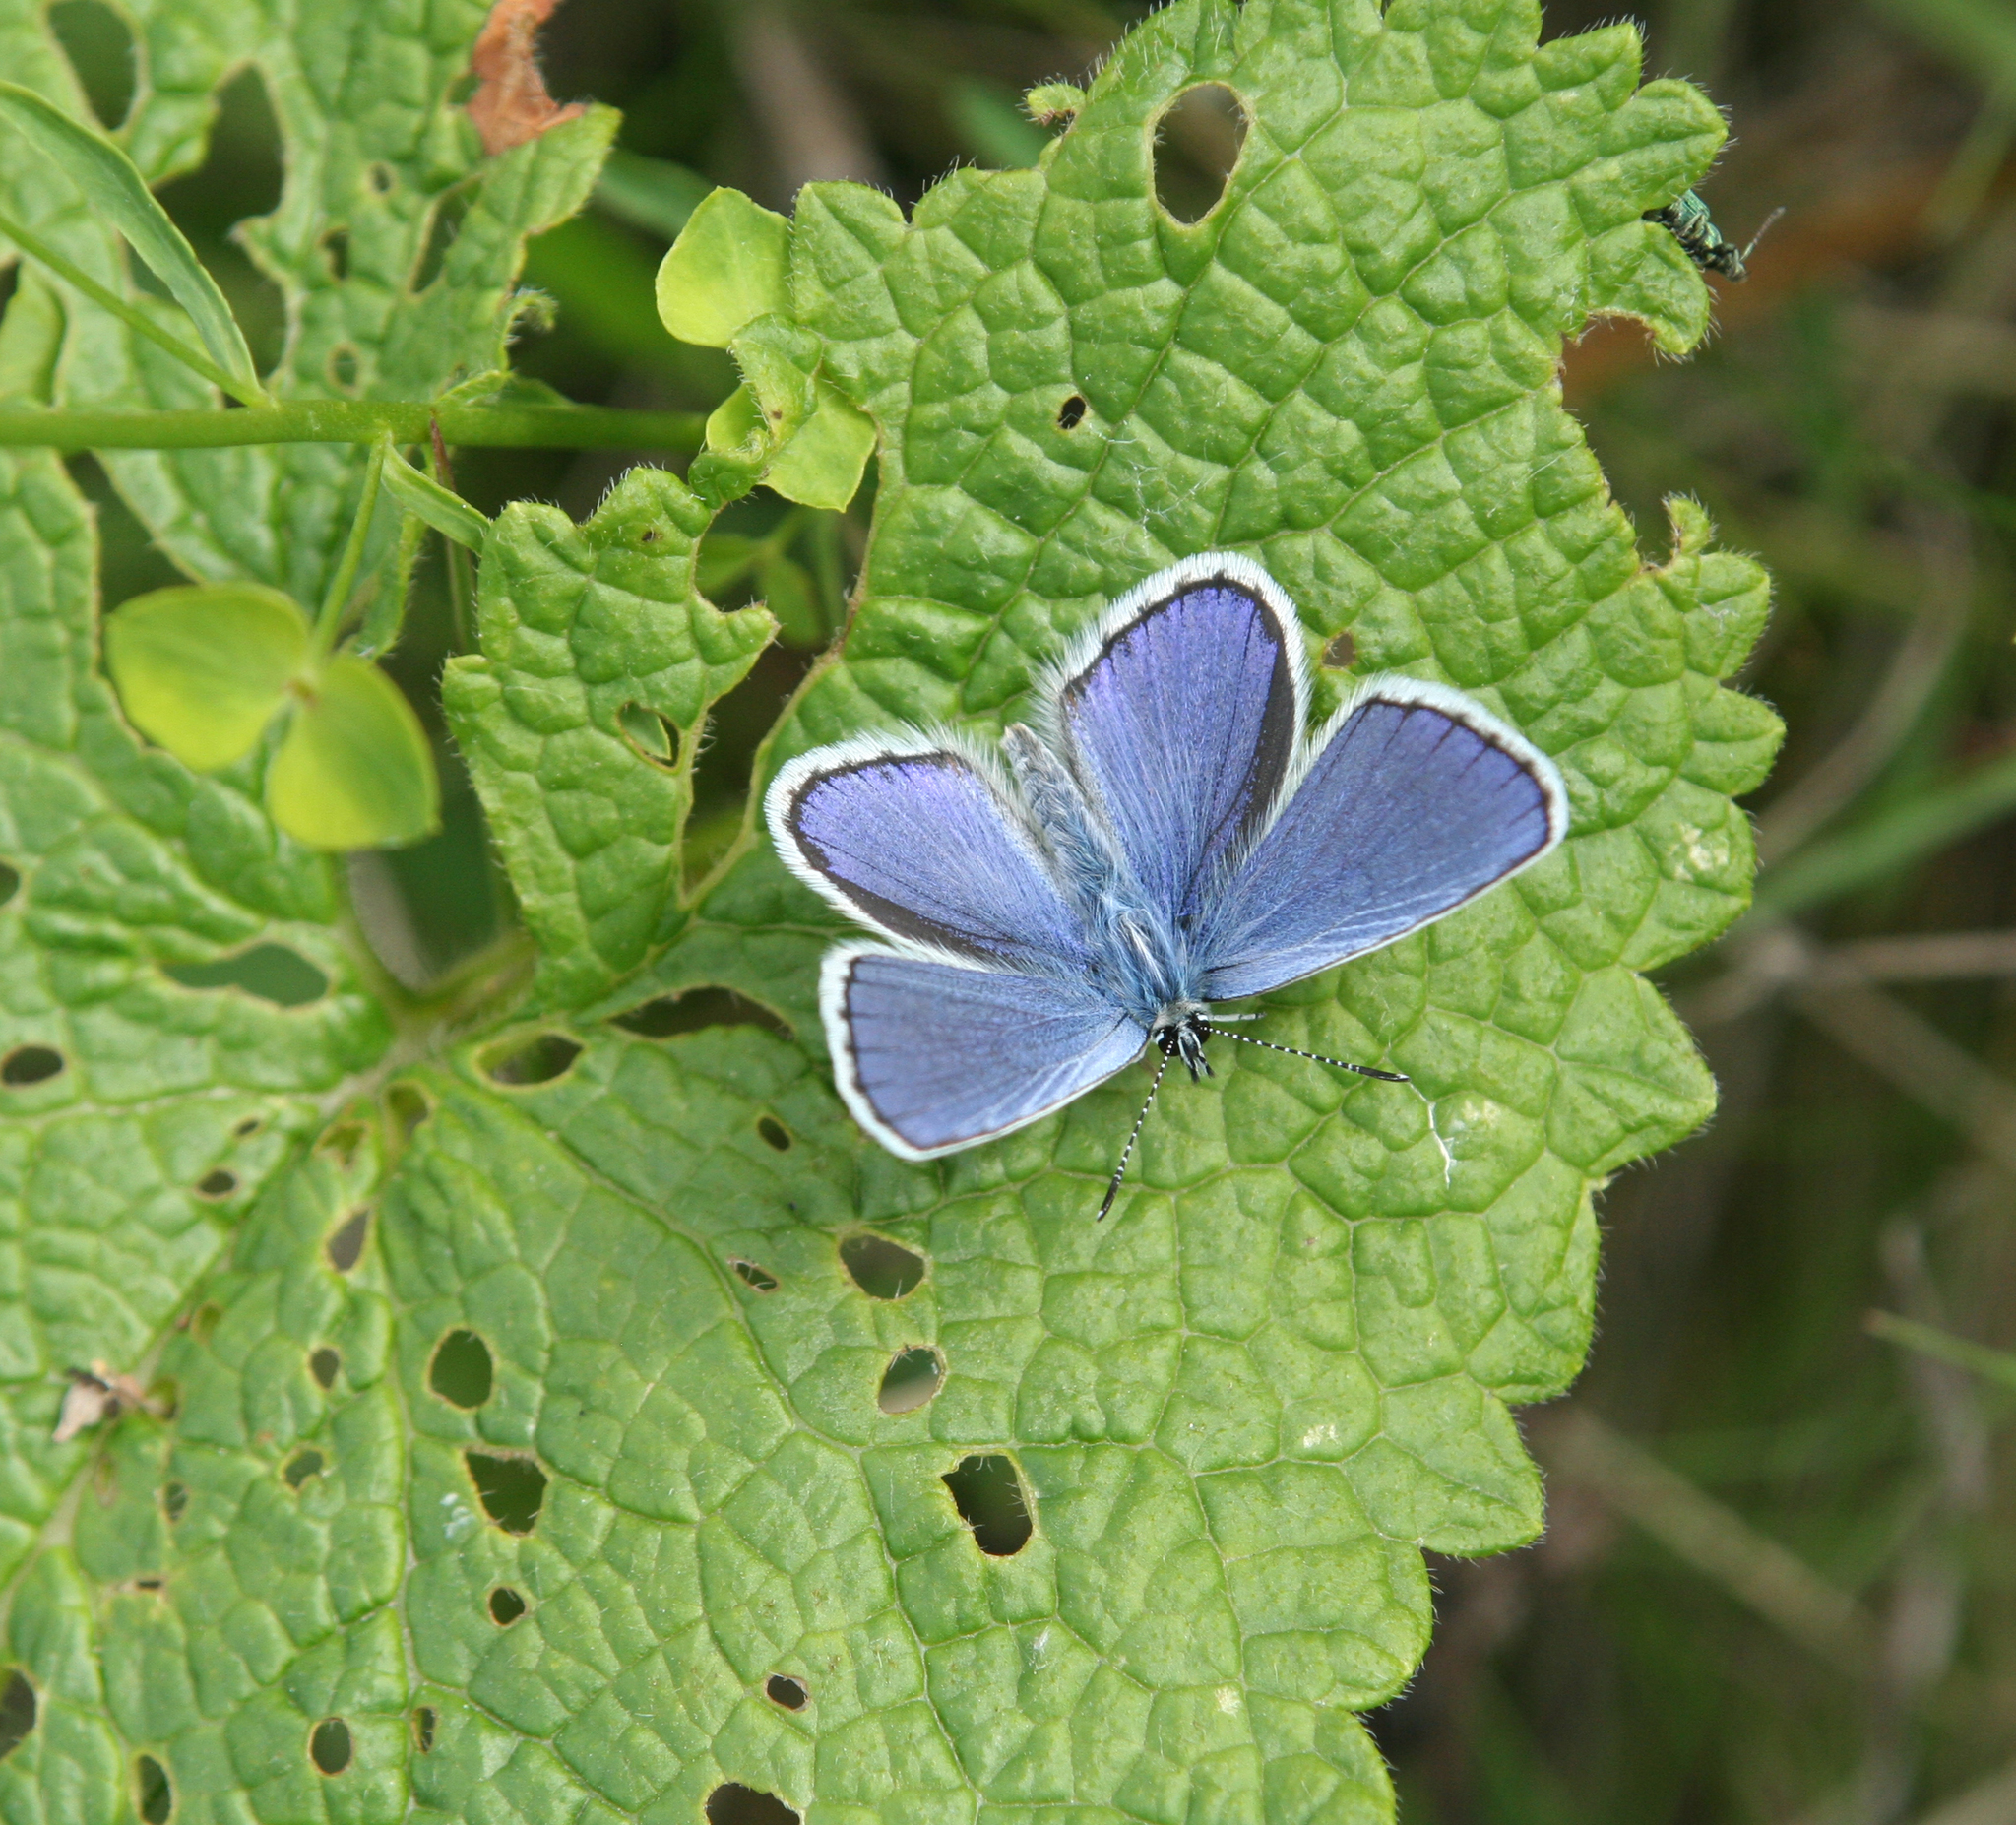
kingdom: Animalia
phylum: Arthropoda
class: Insecta
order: Lepidoptera
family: Lycaenidae
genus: Plebejus
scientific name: Plebejus argyrognomon
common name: Reverdin's blue
